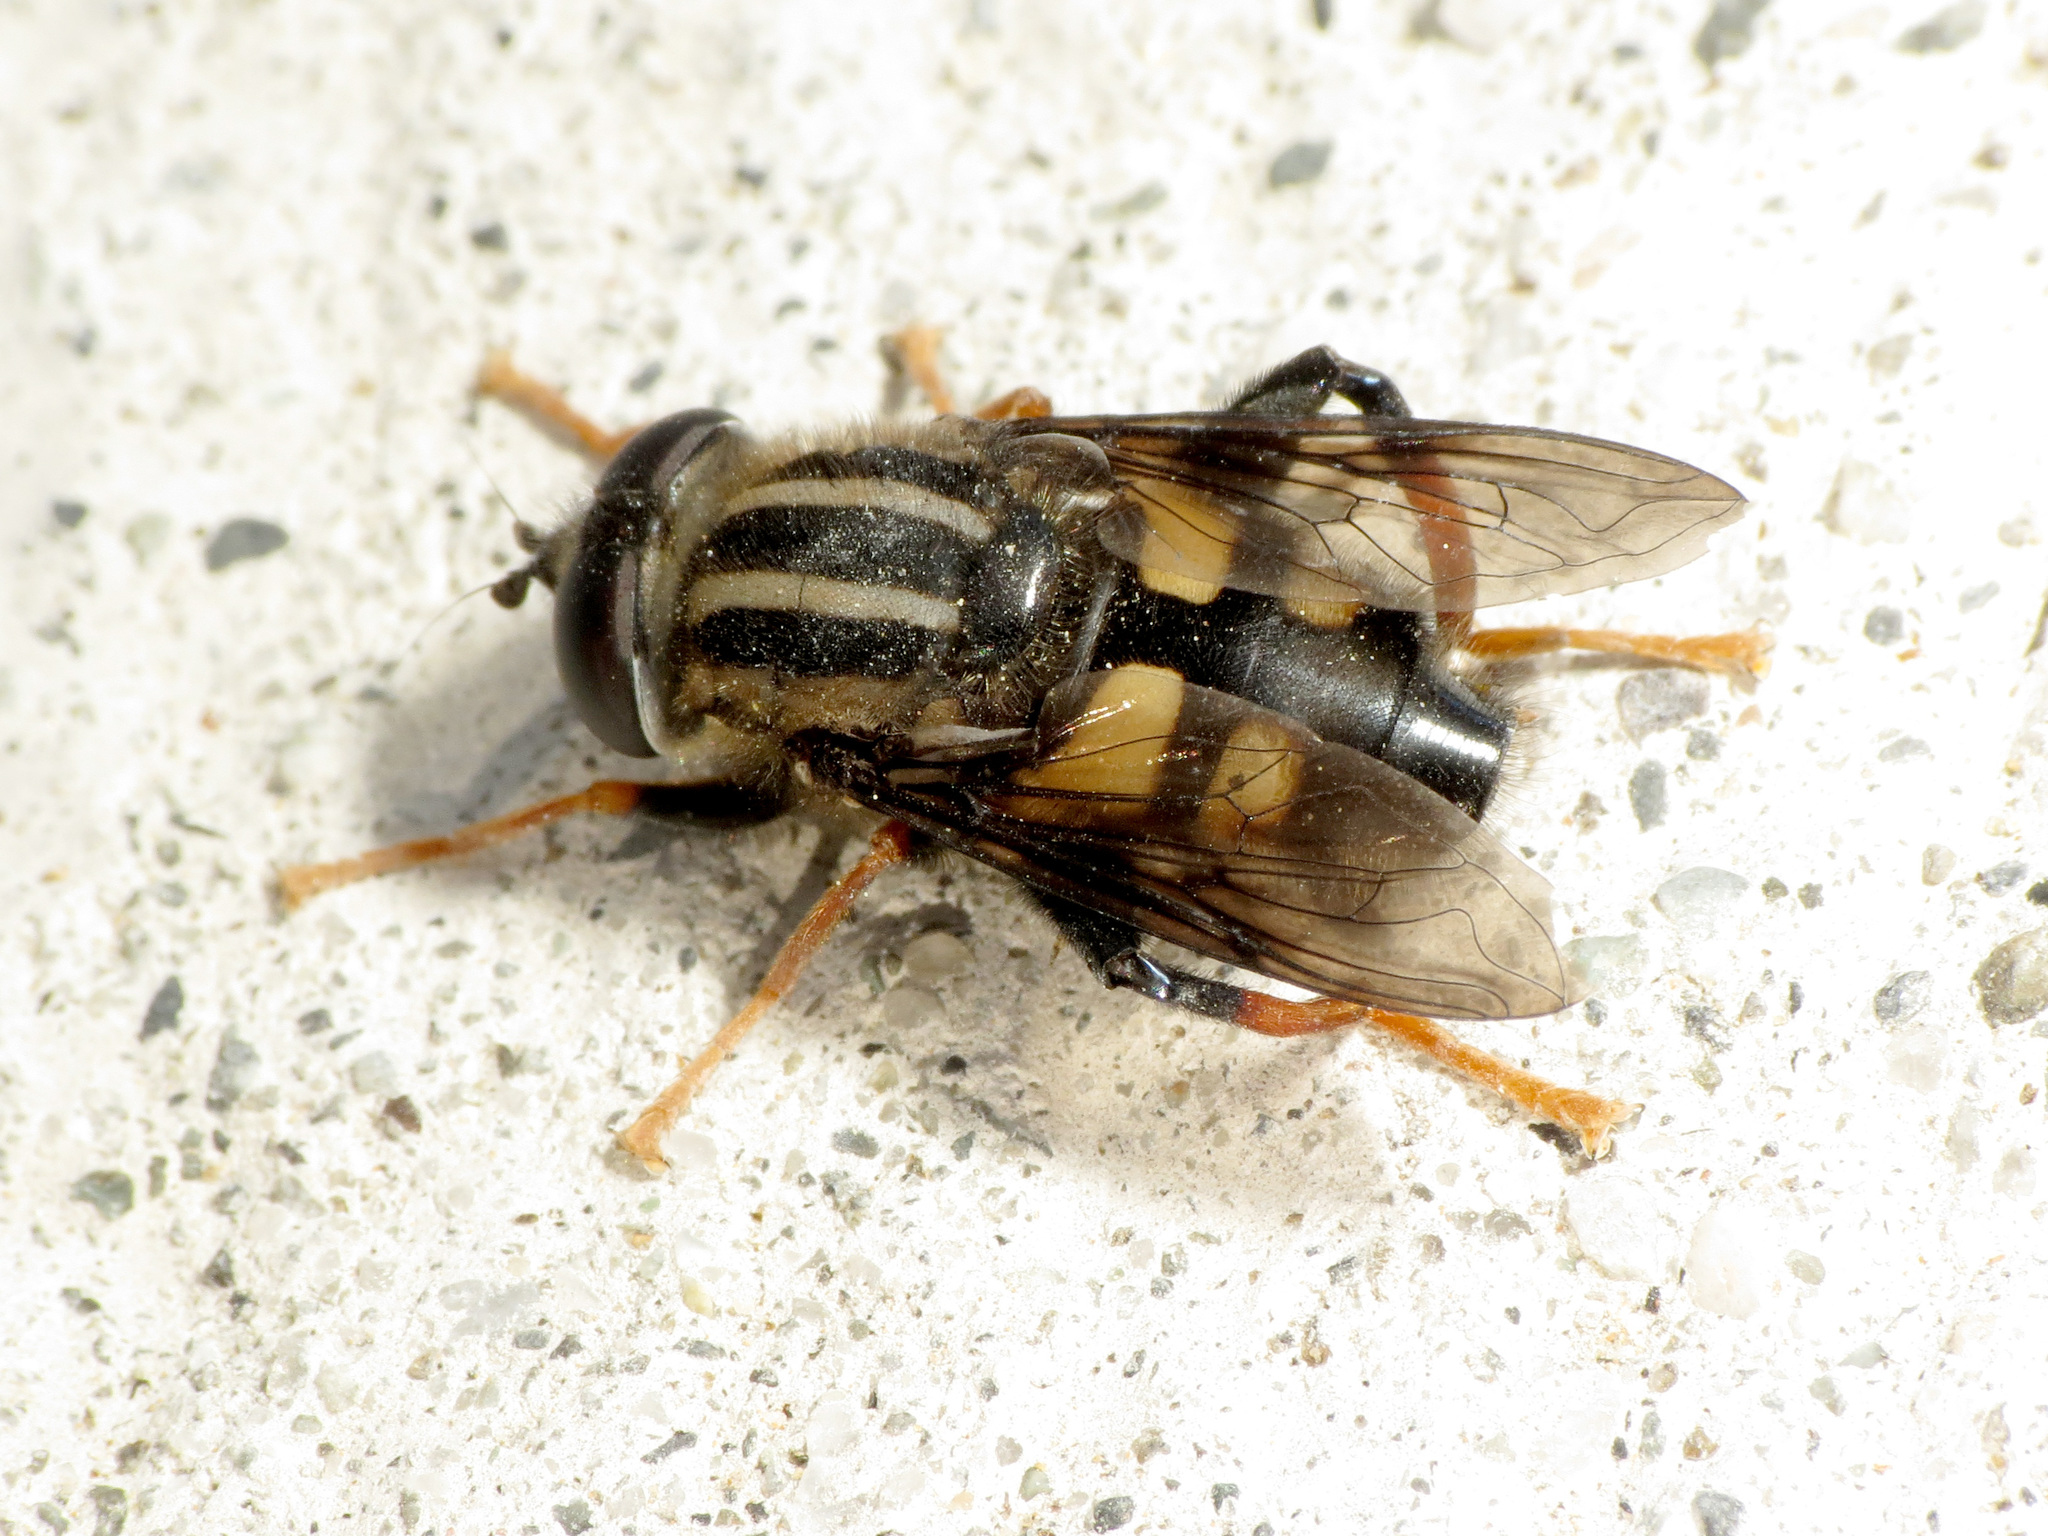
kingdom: Animalia
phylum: Arthropoda
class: Insecta
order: Diptera
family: Syrphidae
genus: Helophilus
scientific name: Helophilus seelandicus
